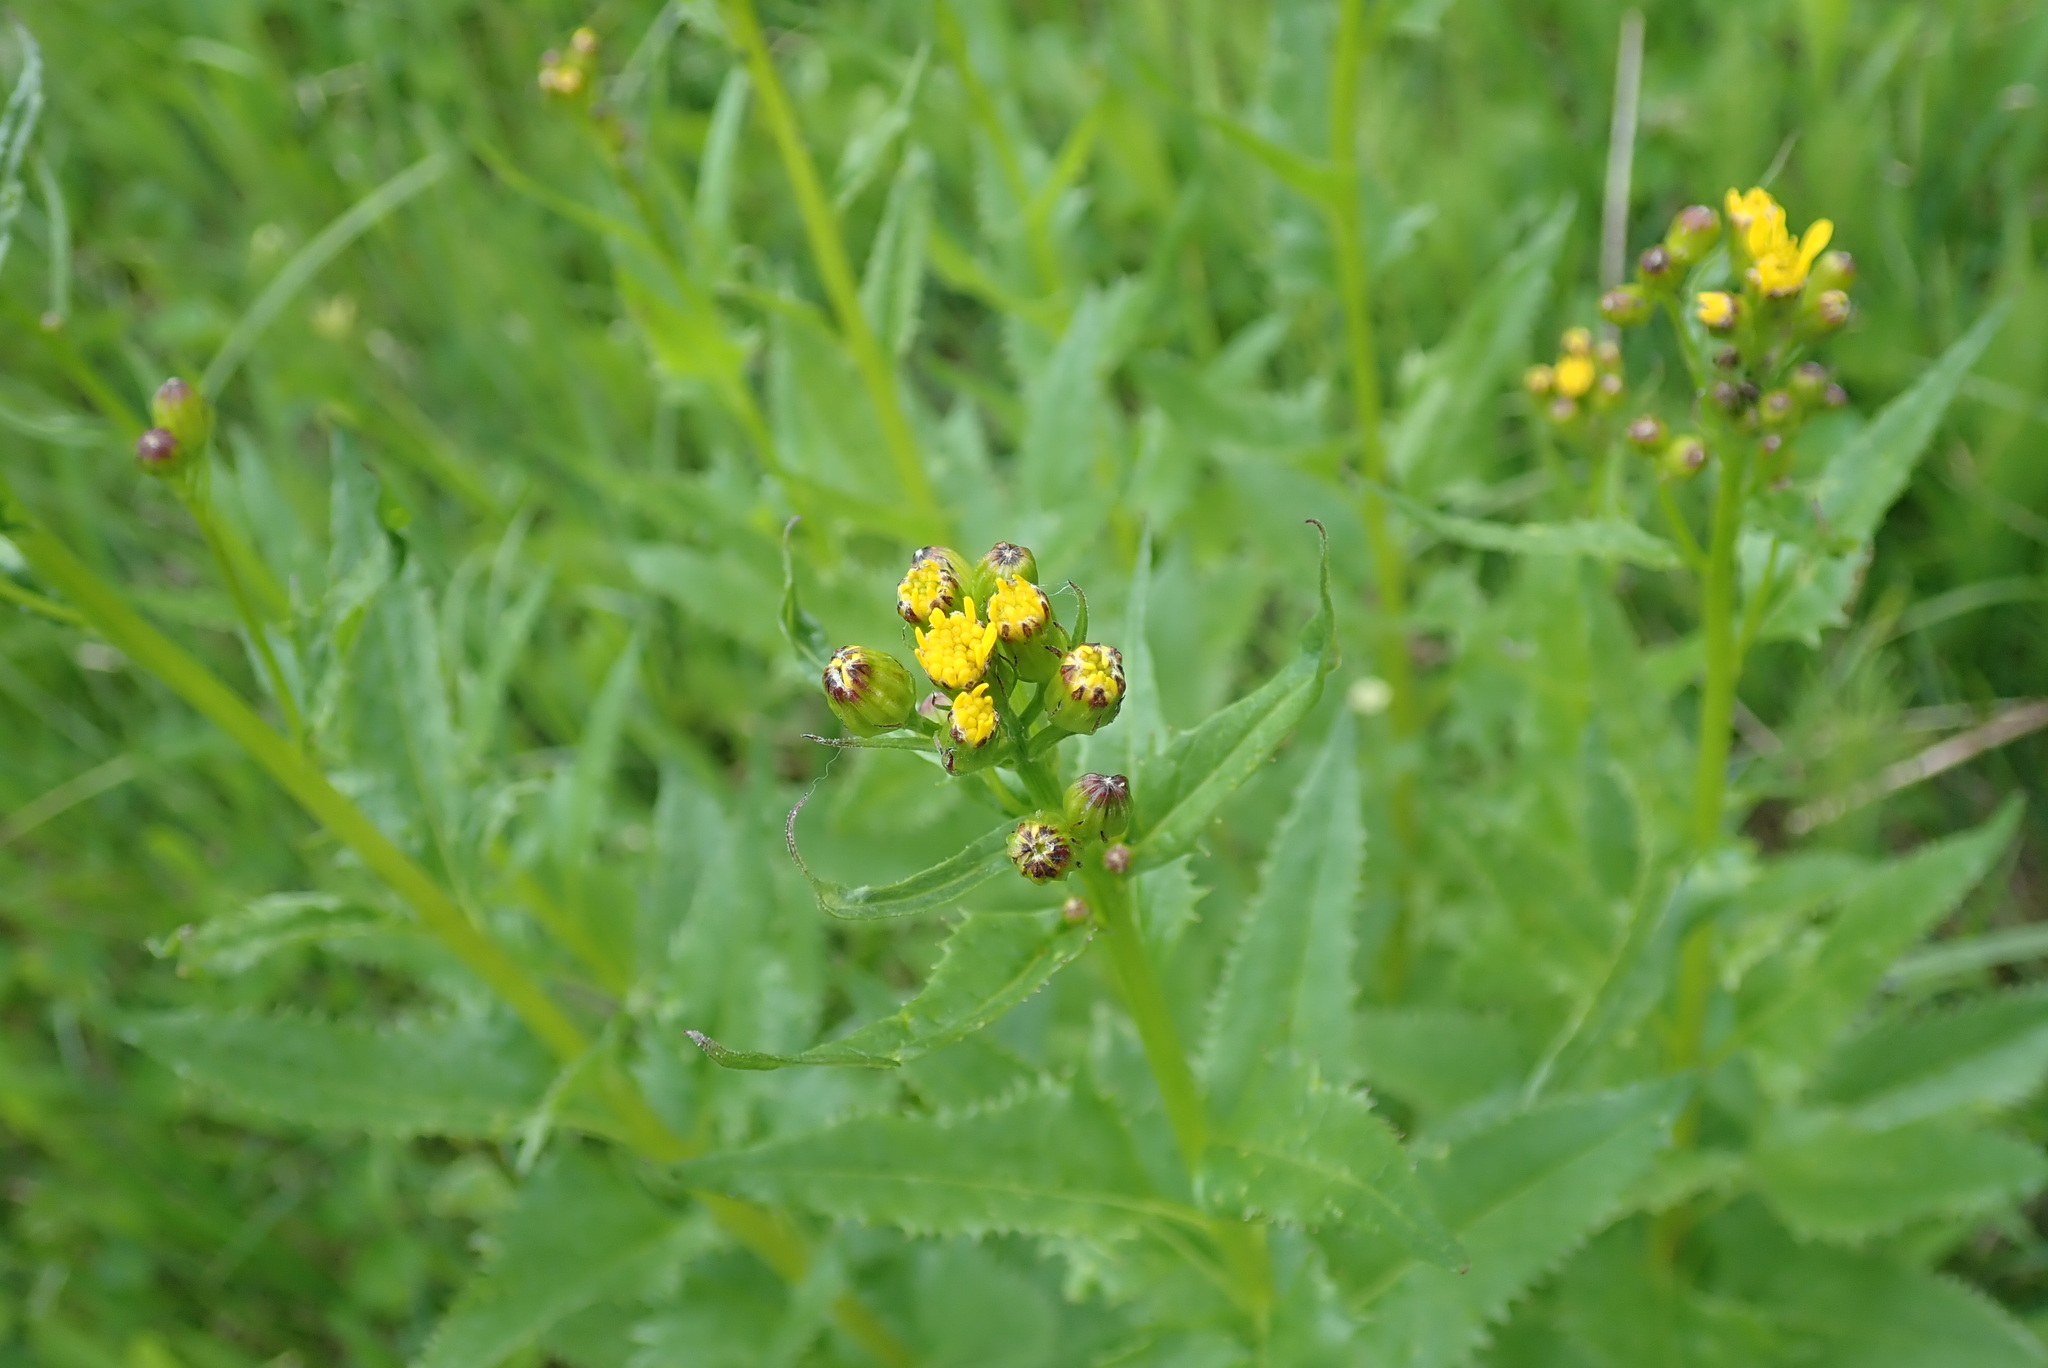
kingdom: Plantae
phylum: Tracheophyta
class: Magnoliopsida
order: Asterales
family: Asteraceae
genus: Senecio
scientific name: Senecio triangularis
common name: Arrowleaf butterweed
